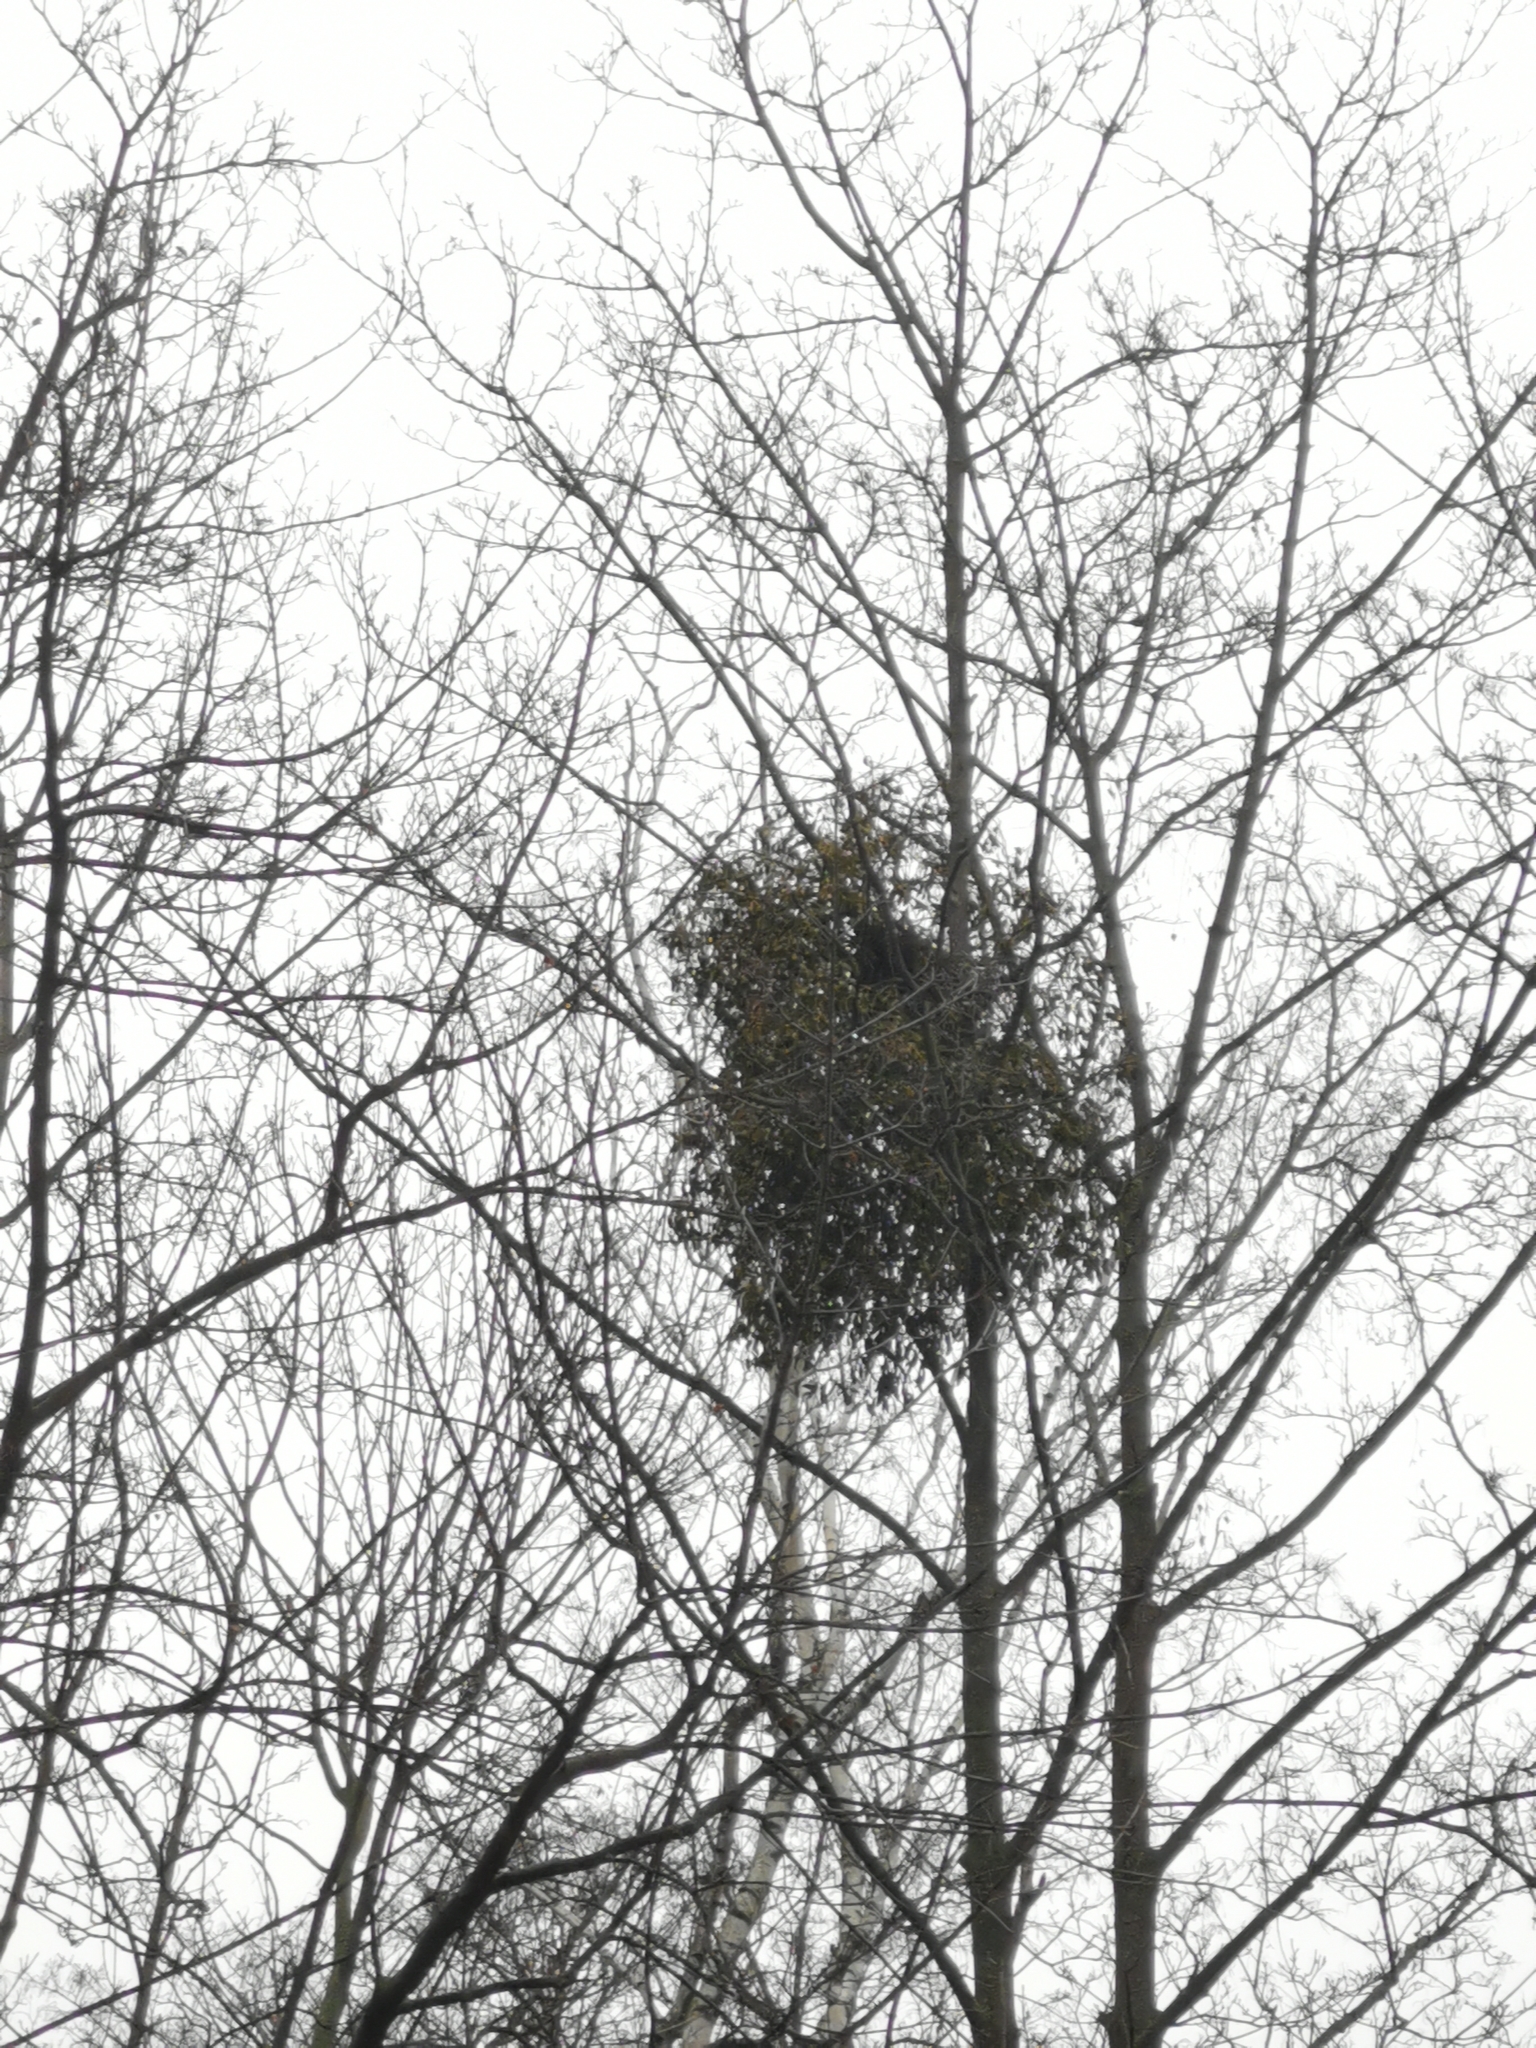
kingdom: Plantae
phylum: Tracheophyta
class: Magnoliopsida
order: Santalales
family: Viscaceae
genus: Viscum
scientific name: Viscum album
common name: Mistletoe
